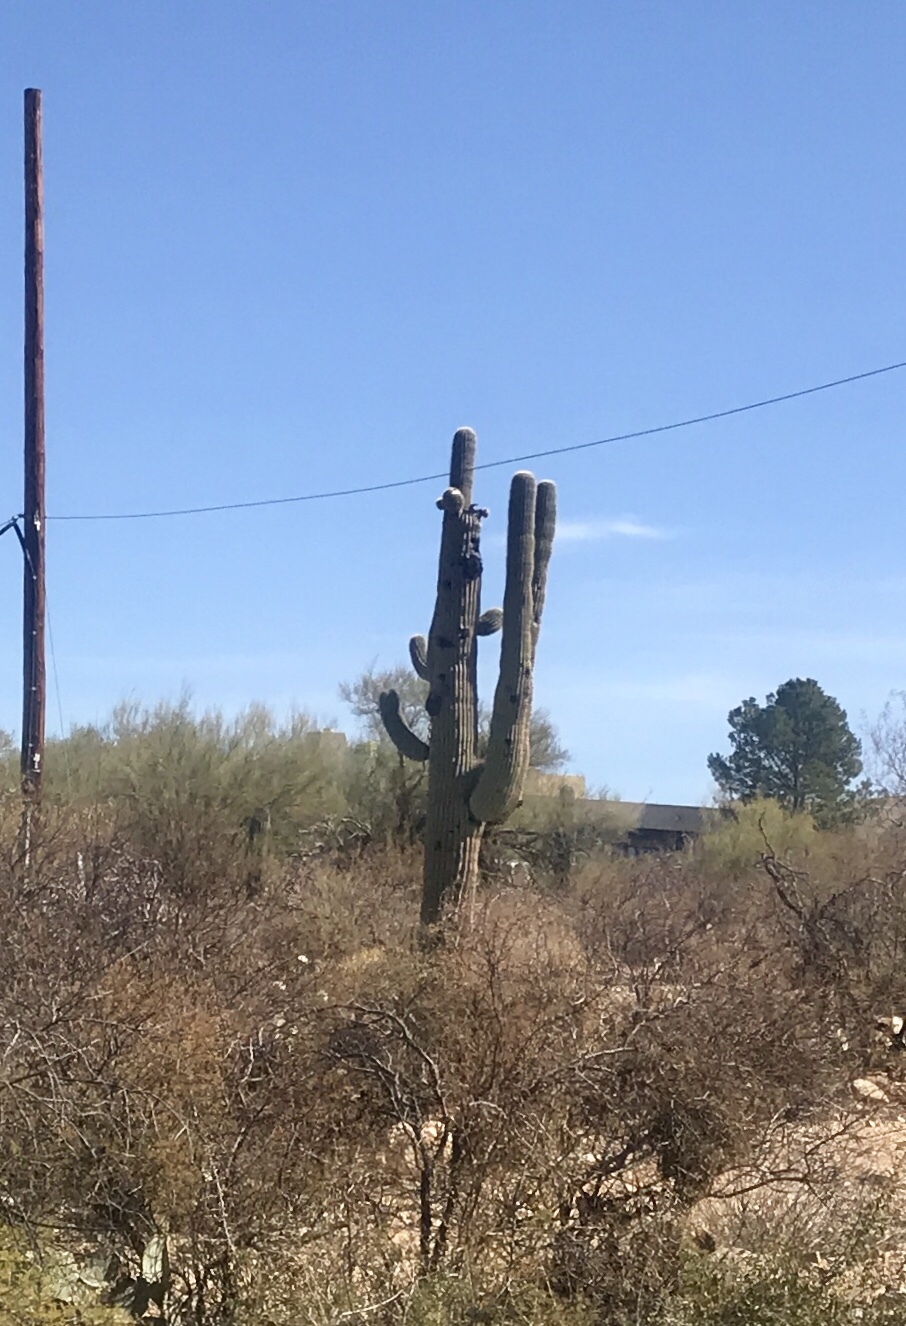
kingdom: Plantae
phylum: Tracheophyta
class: Magnoliopsida
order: Caryophyllales
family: Cactaceae
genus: Carnegiea
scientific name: Carnegiea gigantea
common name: Saguaro
